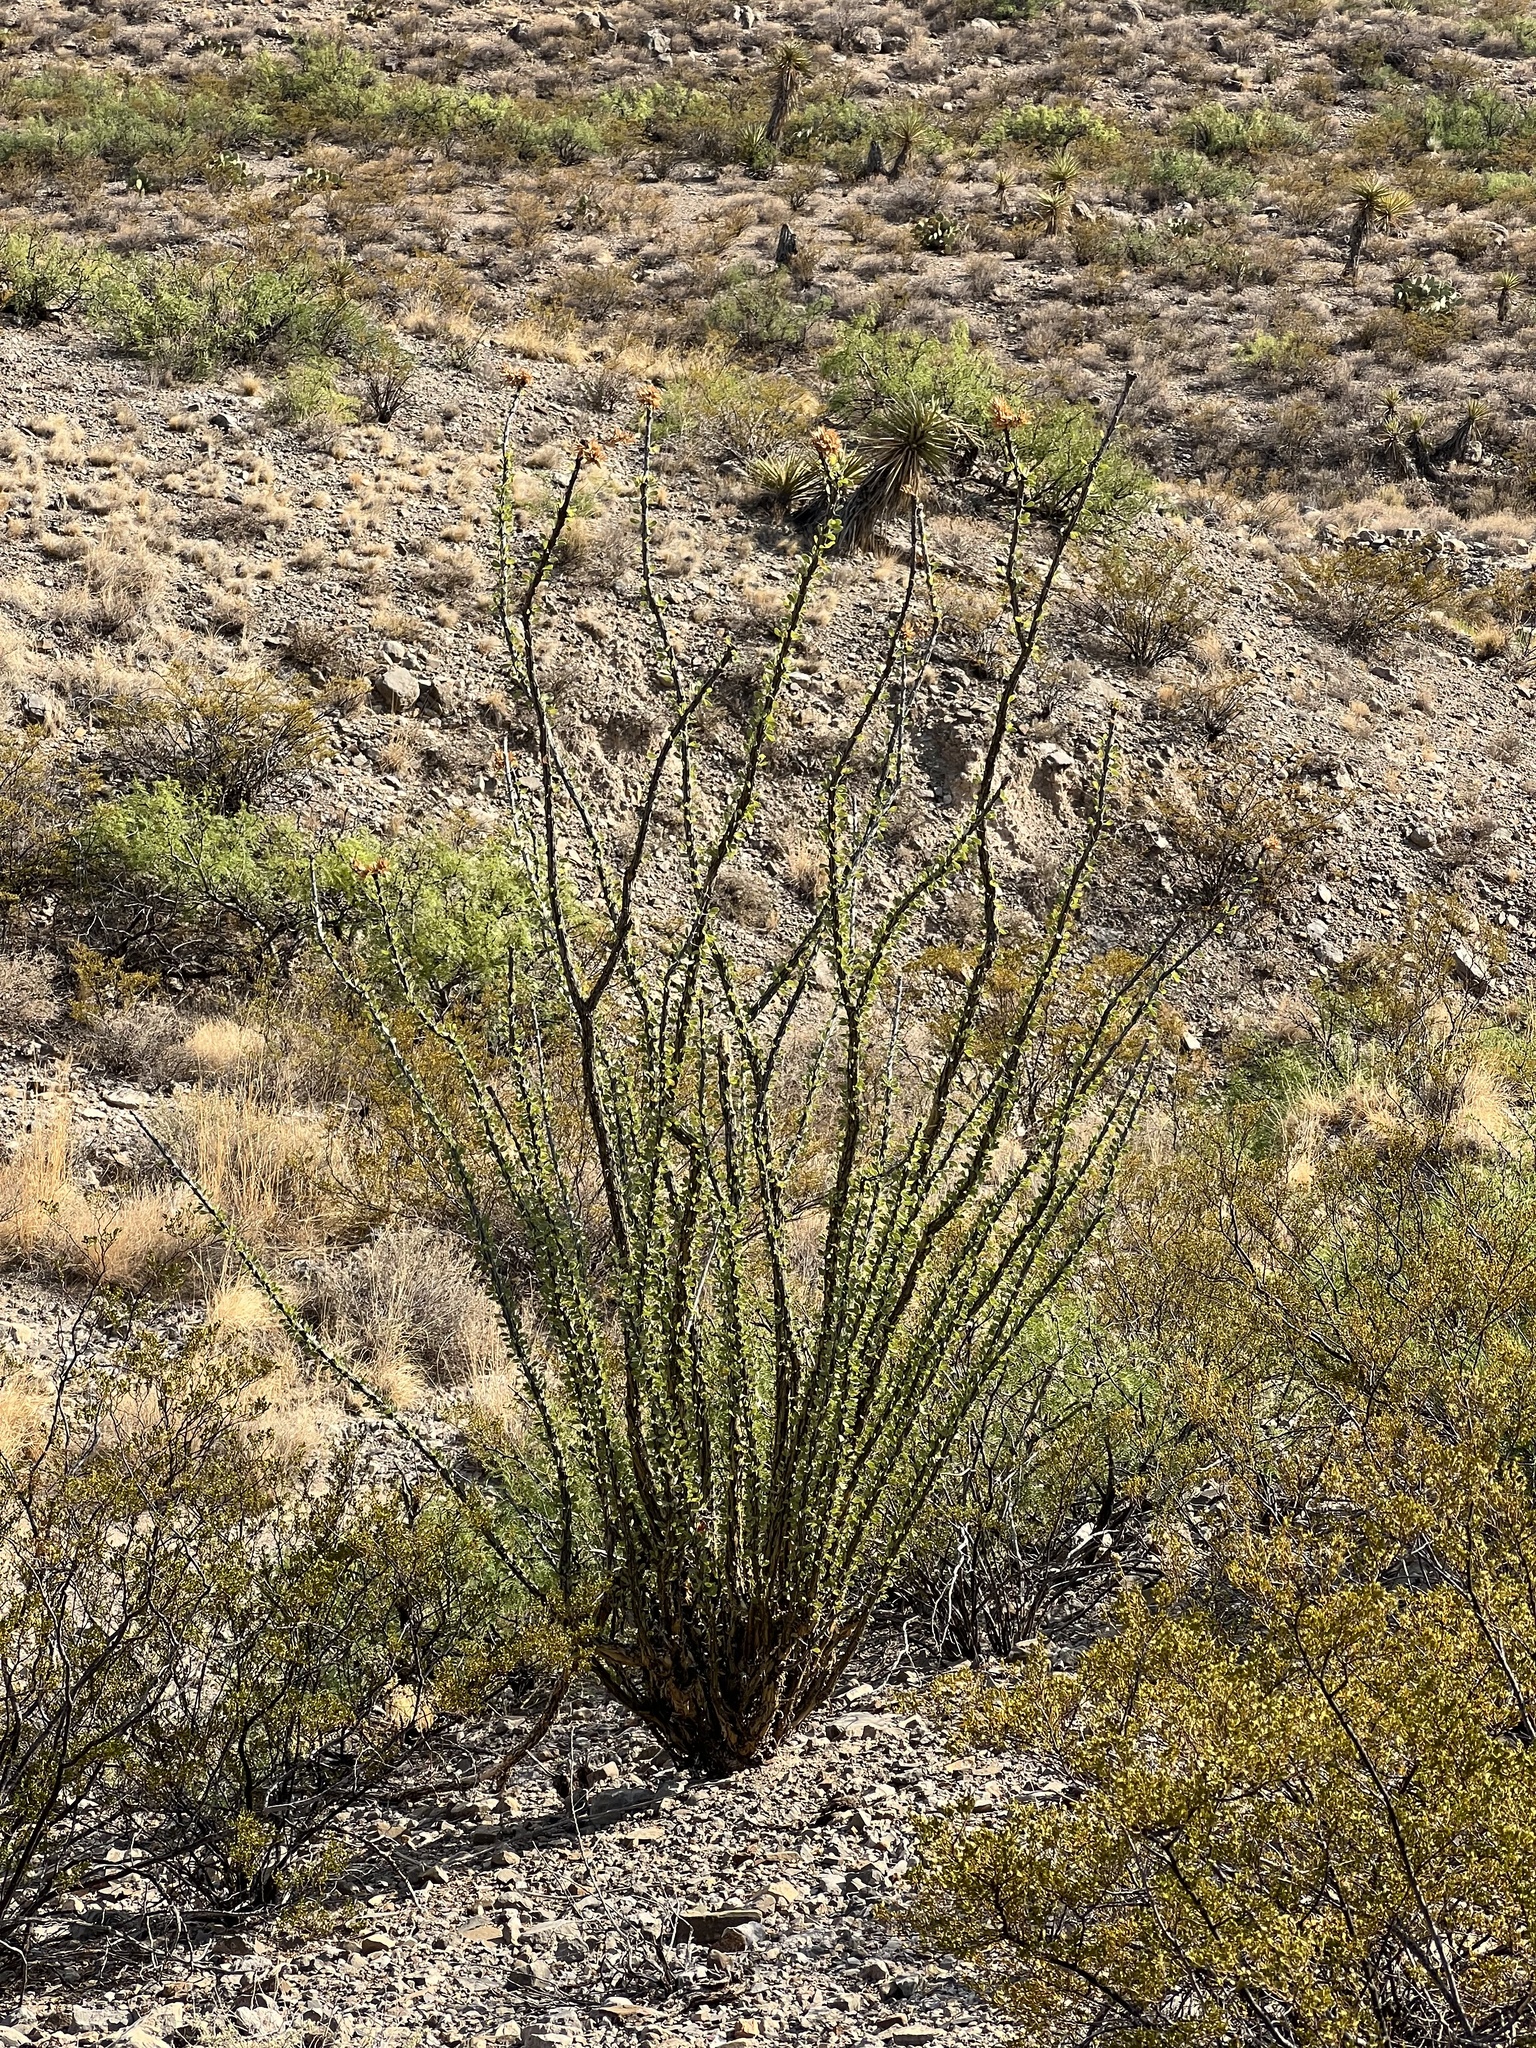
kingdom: Plantae
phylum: Tracheophyta
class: Magnoliopsida
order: Ericales
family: Fouquieriaceae
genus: Fouquieria
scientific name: Fouquieria splendens
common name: Vine-cactus
